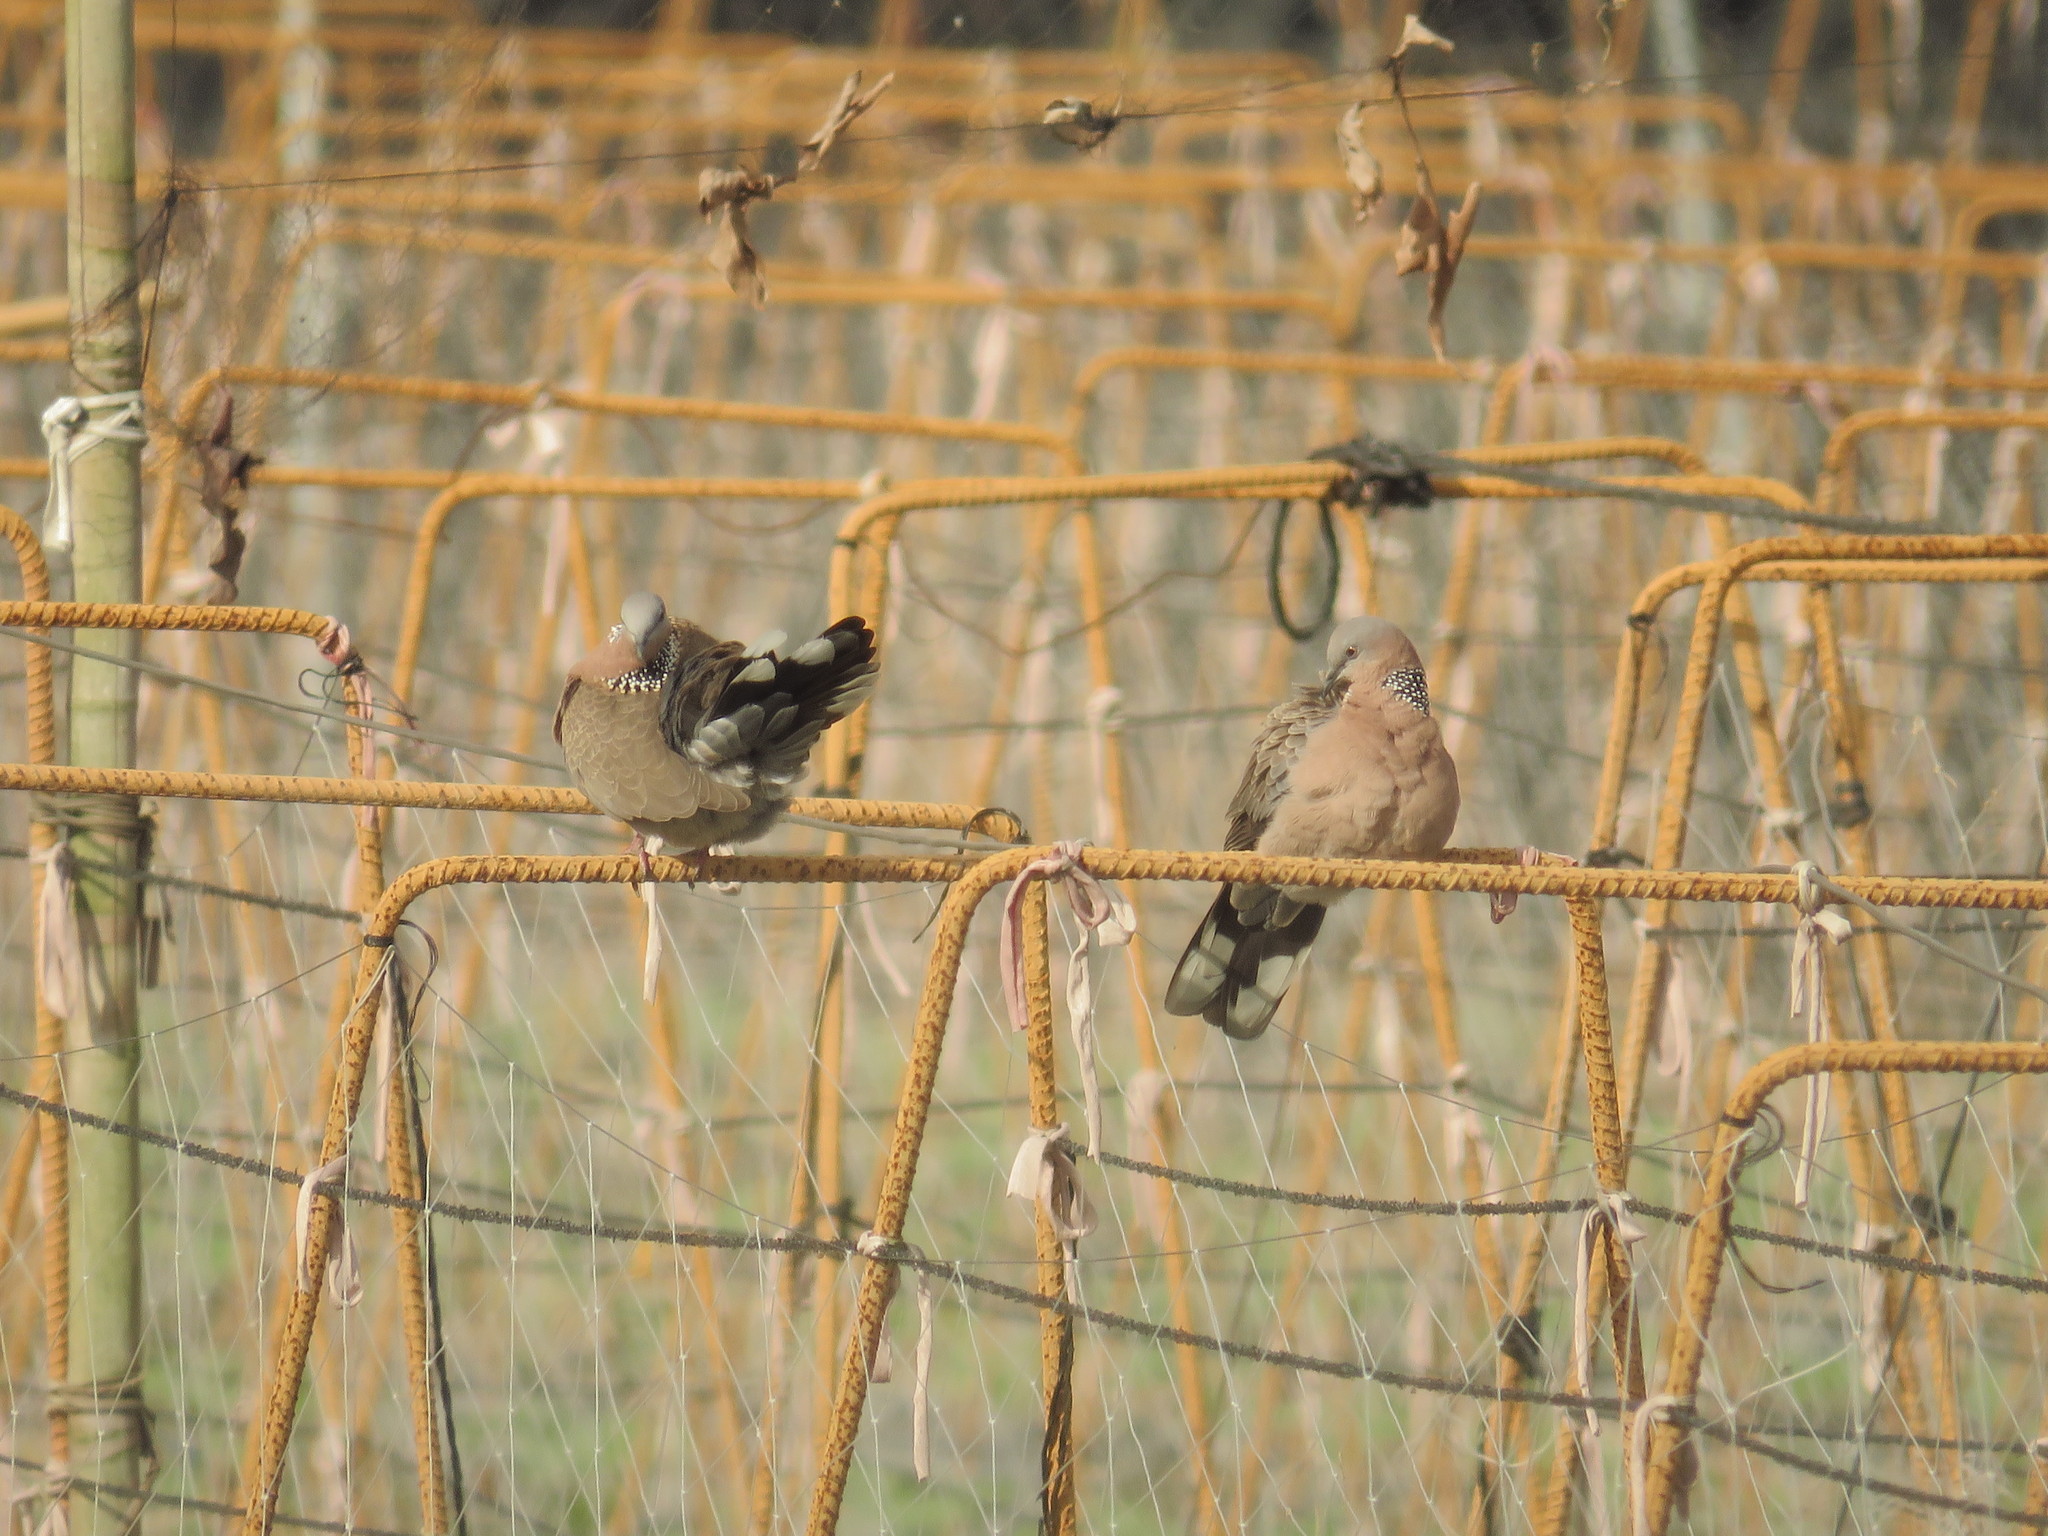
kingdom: Animalia
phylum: Chordata
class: Aves
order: Columbiformes
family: Columbidae
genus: Spilopelia
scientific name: Spilopelia chinensis
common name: Spotted dove
